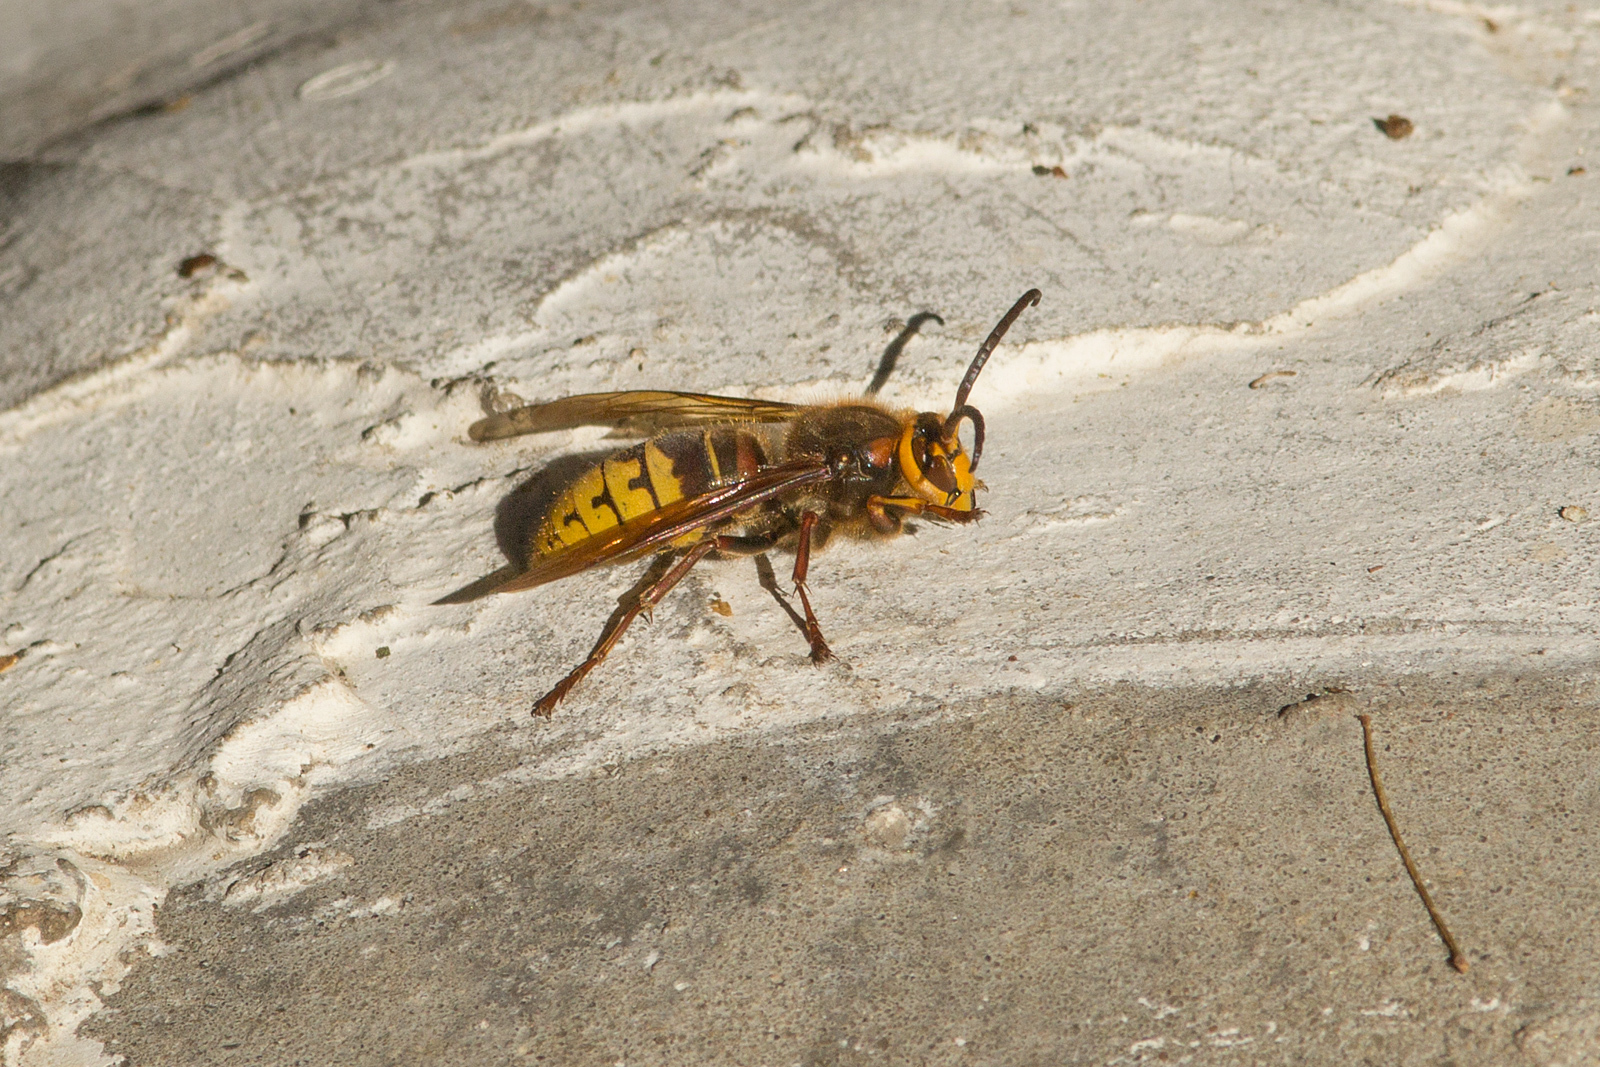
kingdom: Animalia
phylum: Arthropoda
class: Insecta
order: Hymenoptera
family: Vespidae
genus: Vespa
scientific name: Vespa crabro
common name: Hornet
